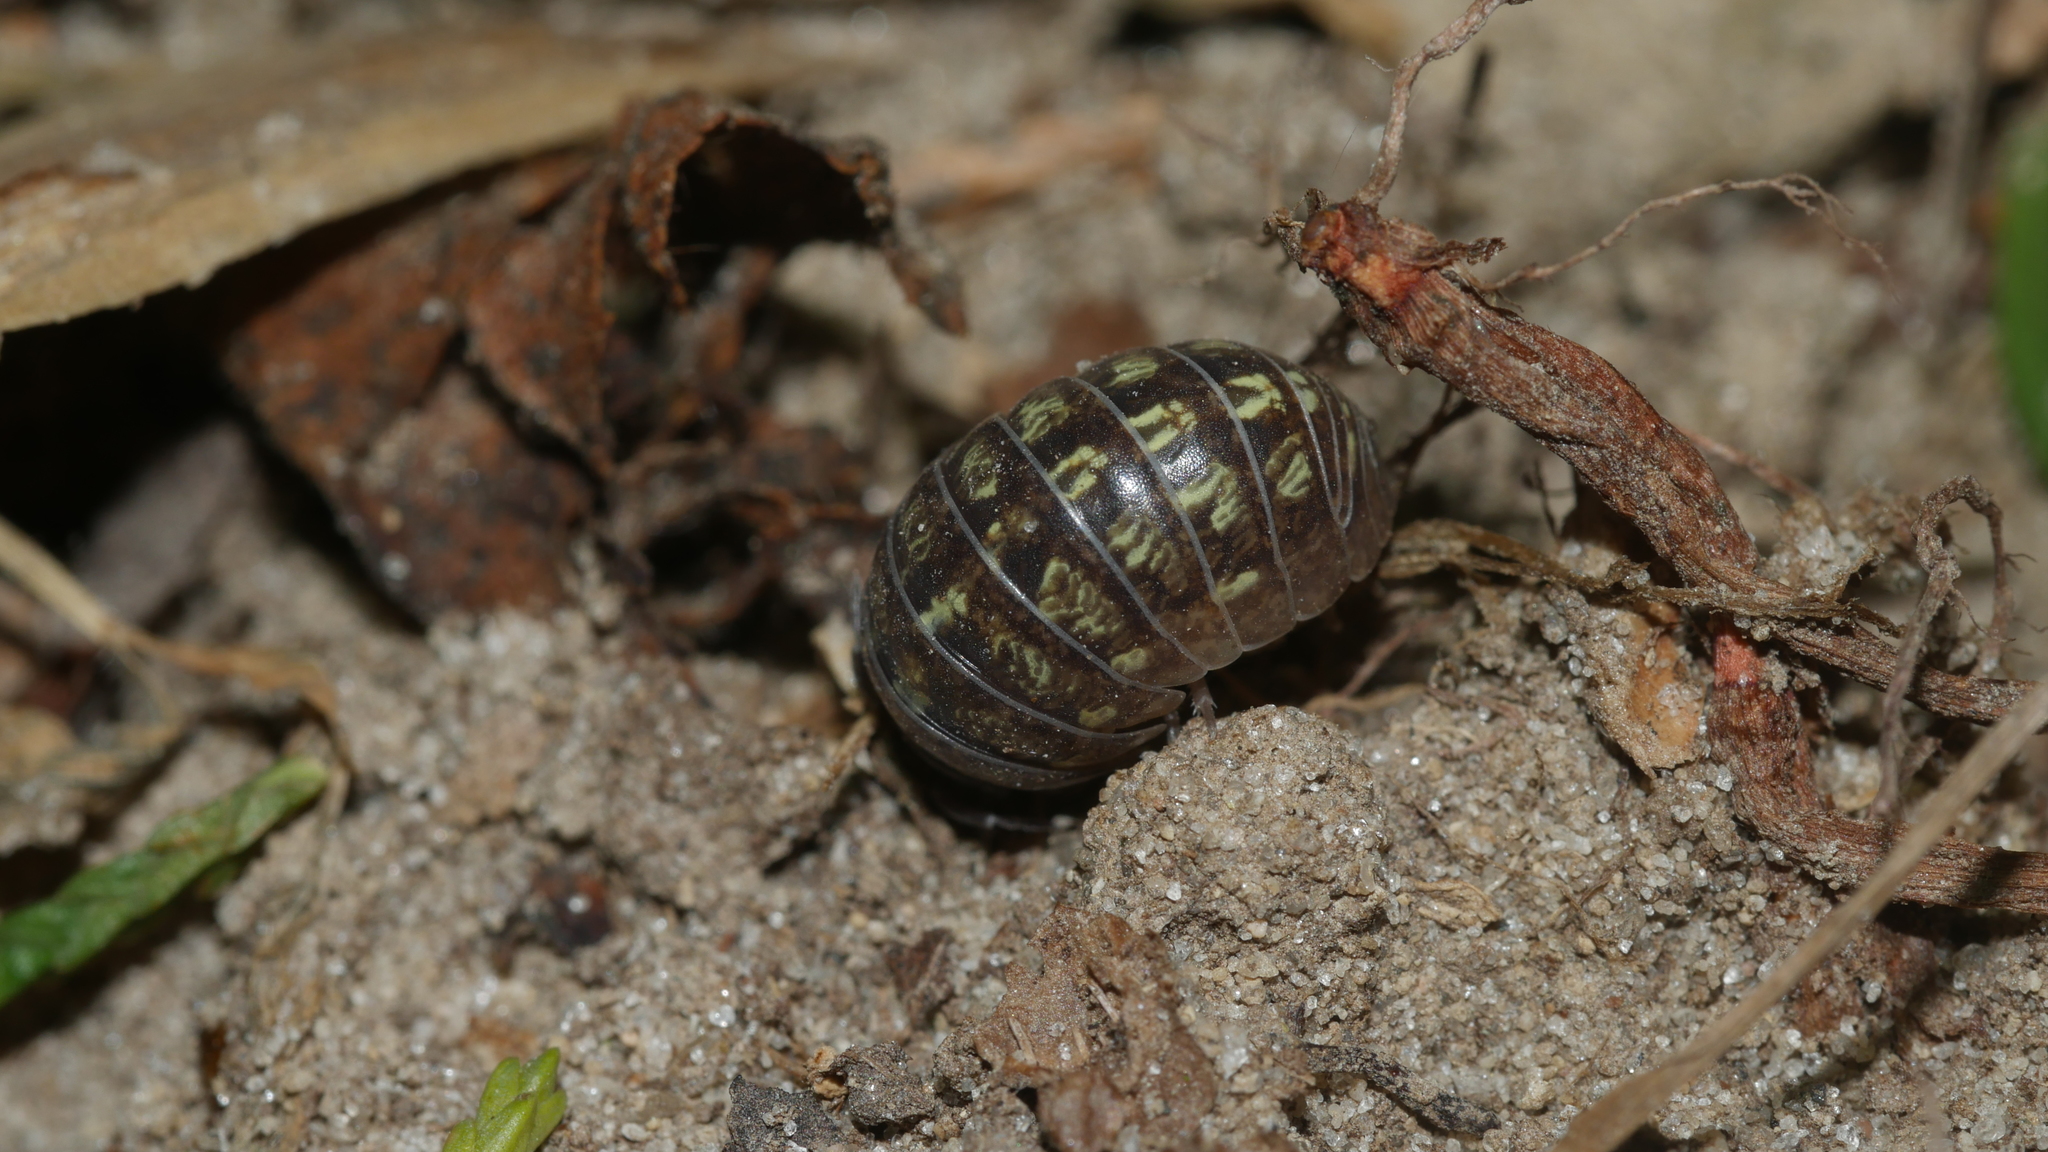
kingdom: Animalia
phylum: Arthropoda
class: Malacostraca
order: Isopoda
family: Armadillidiidae
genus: Armadillidium
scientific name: Armadillidium vulgare
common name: Common pill woodlouse
